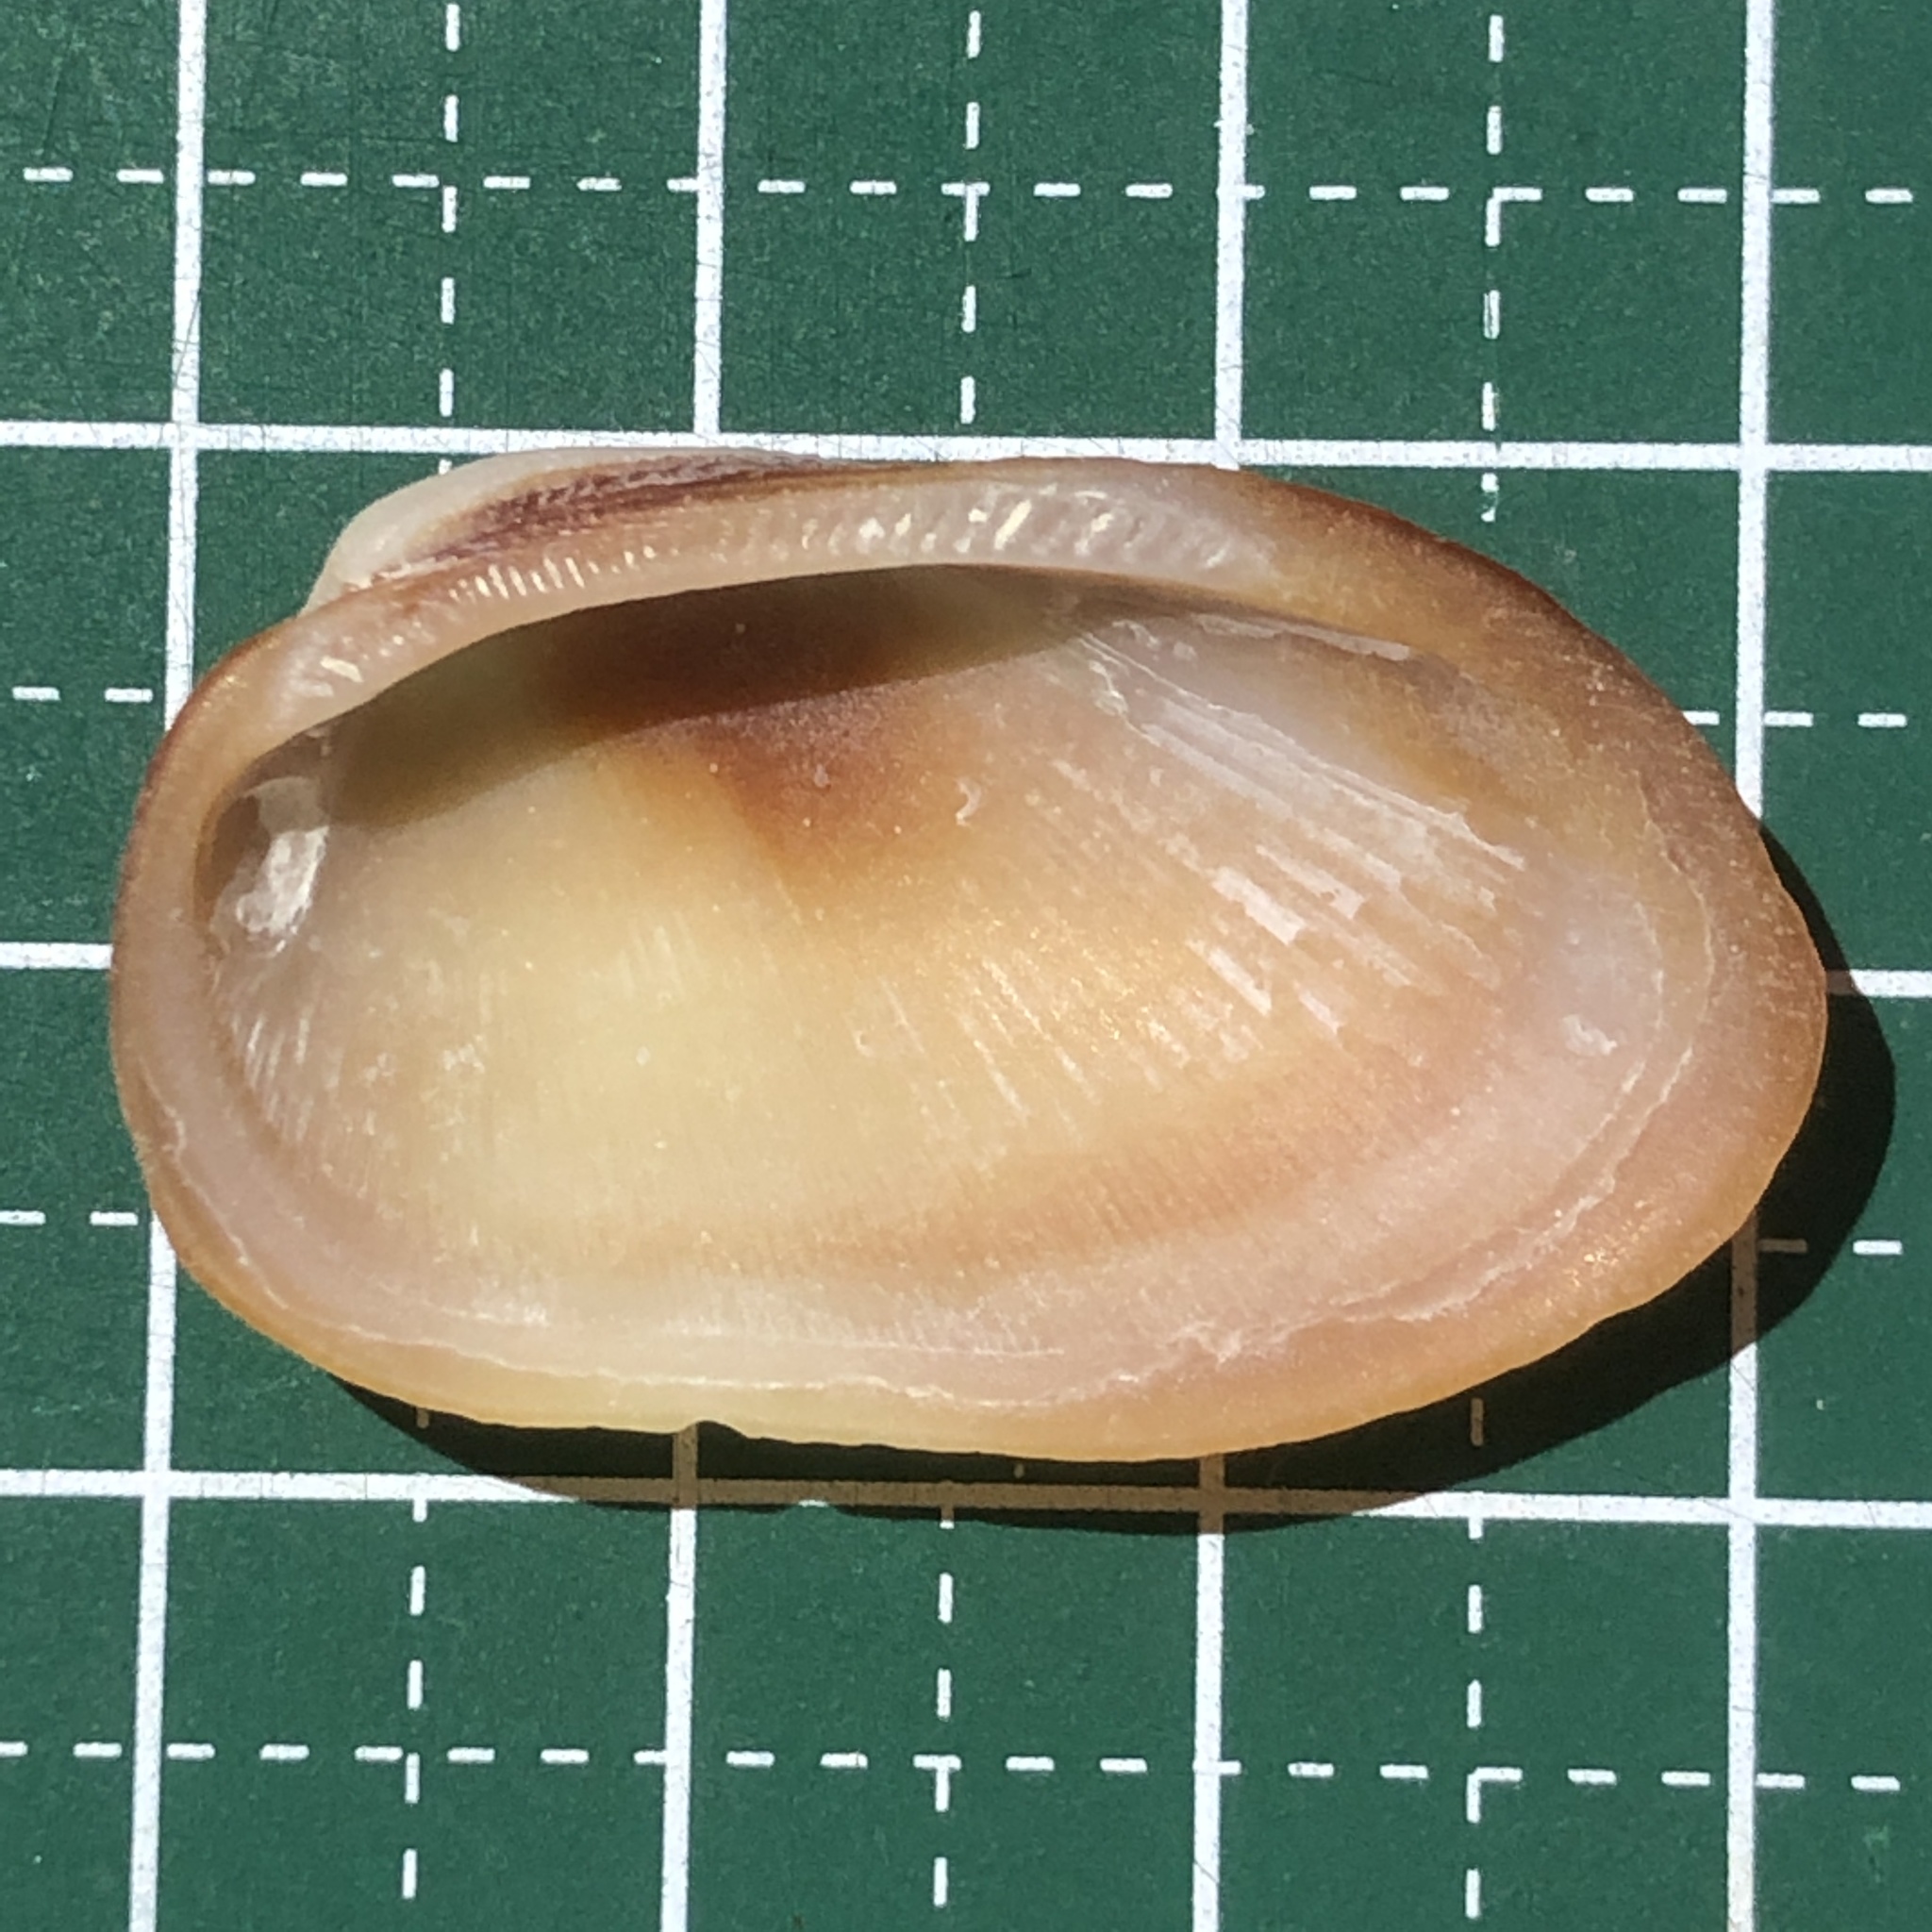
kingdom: Animalia
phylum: Mollusca
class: Bivalvia
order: Arcida
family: Arcidae
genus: Barbatia
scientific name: Barbatia amygdalumtostum
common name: Burnt-almond ark
